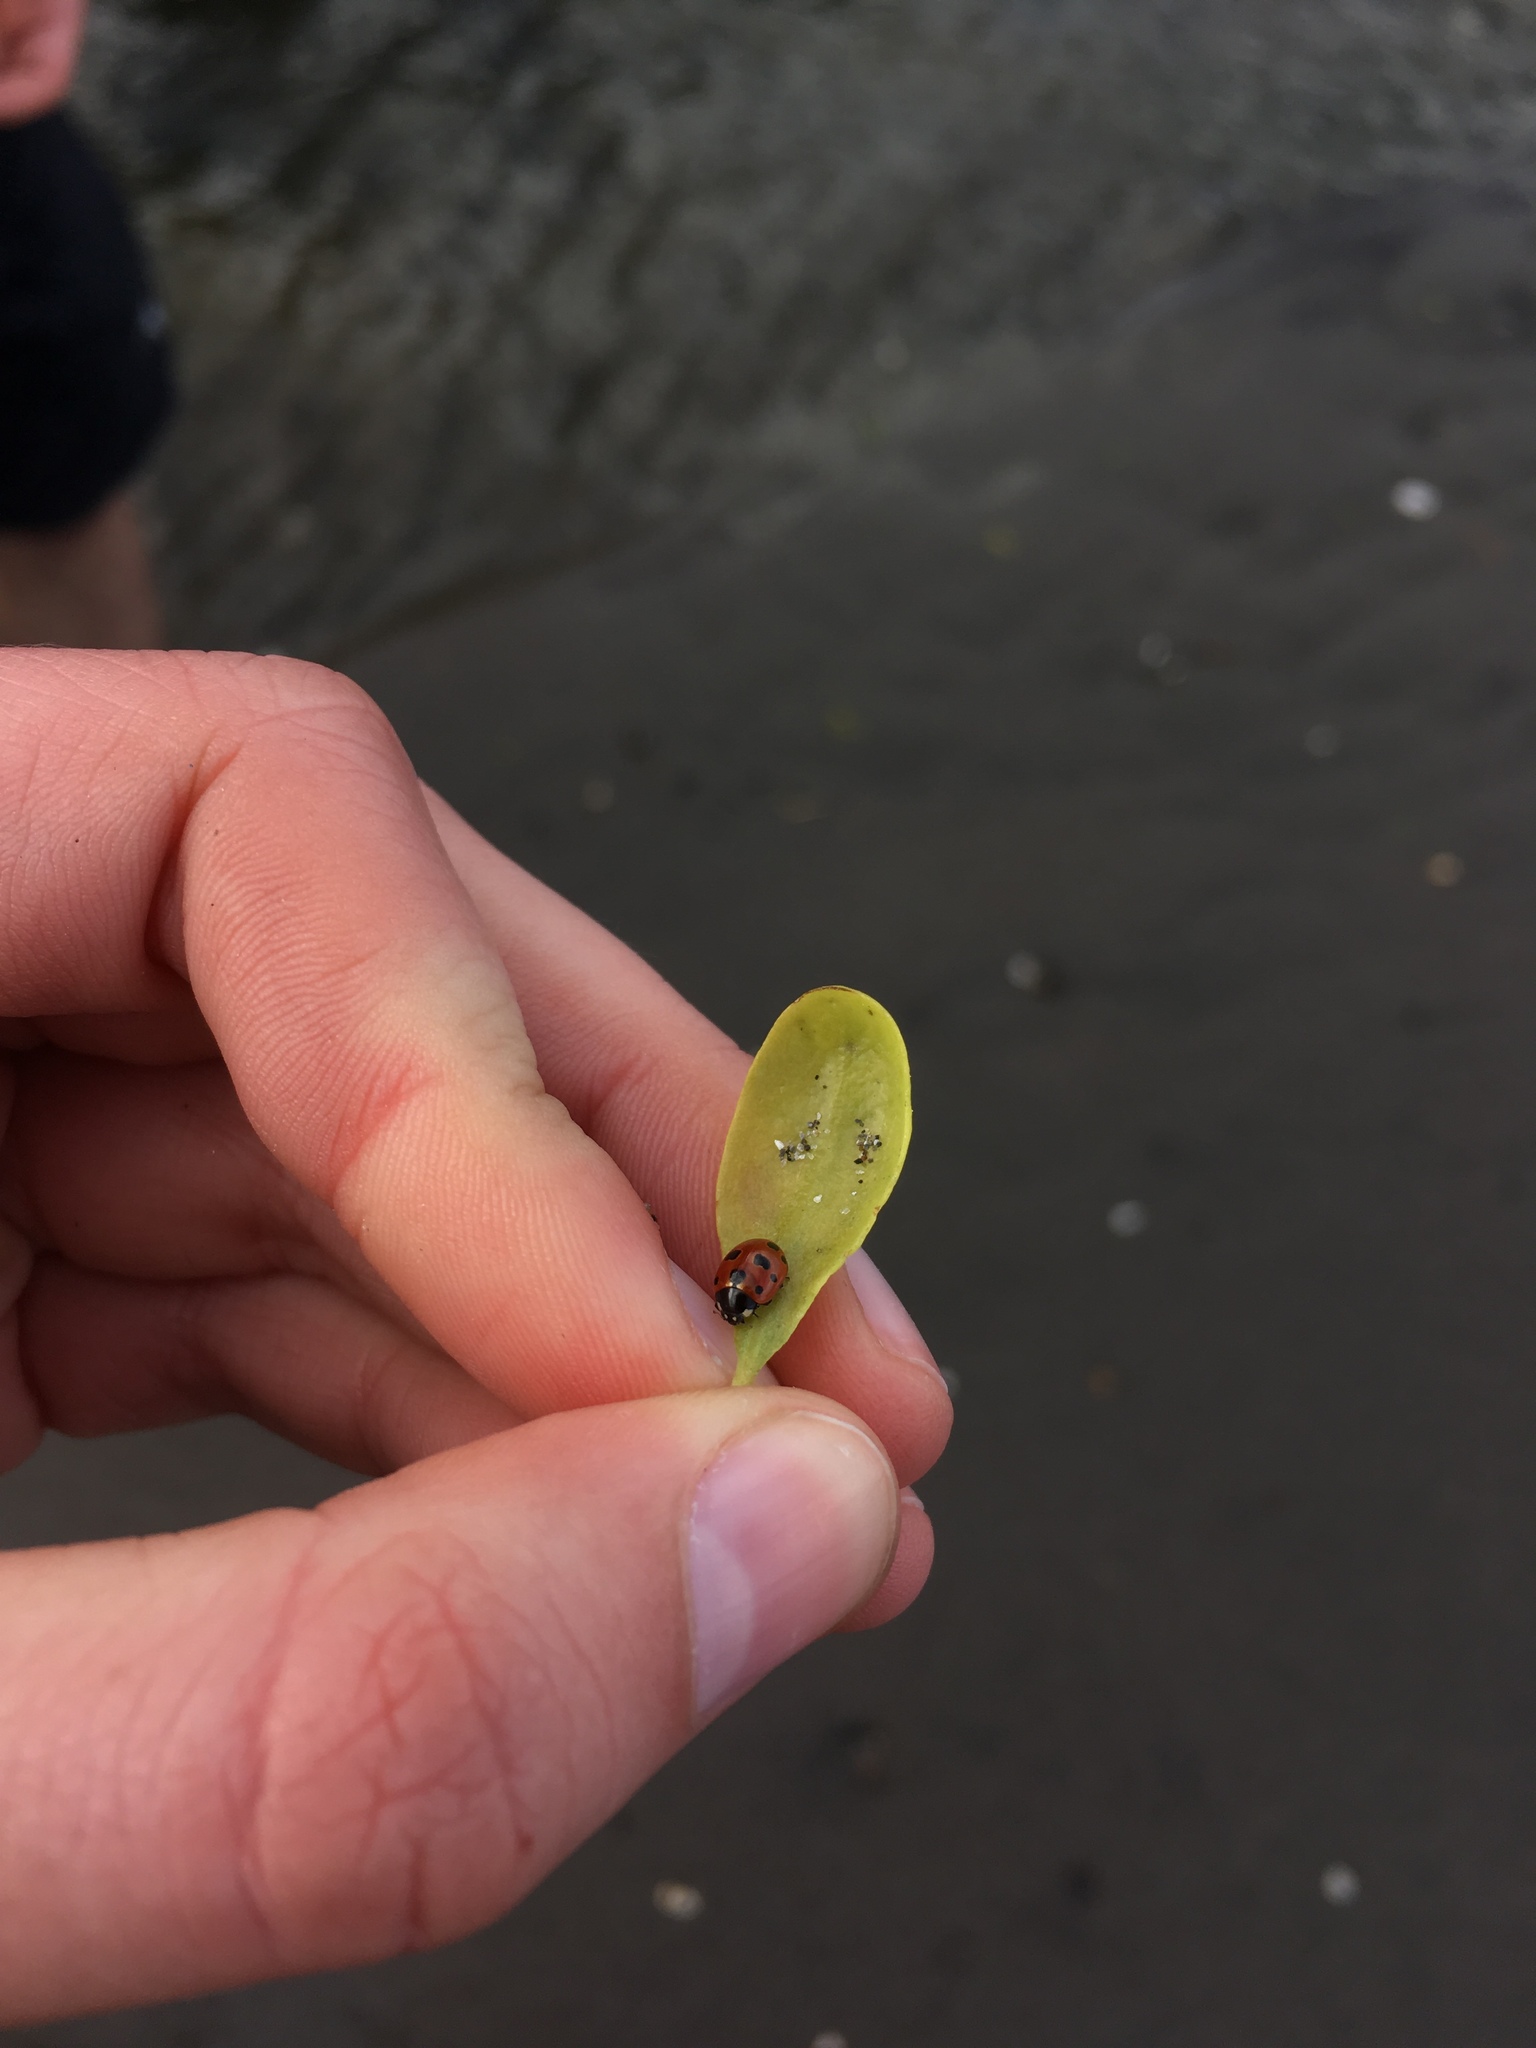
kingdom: Animalia
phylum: Arthropoda
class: Insecta
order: Coleoptera
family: Coccinellidae
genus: Coccinella
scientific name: Coccinella undecimpunctata
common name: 11-spot ladybird
